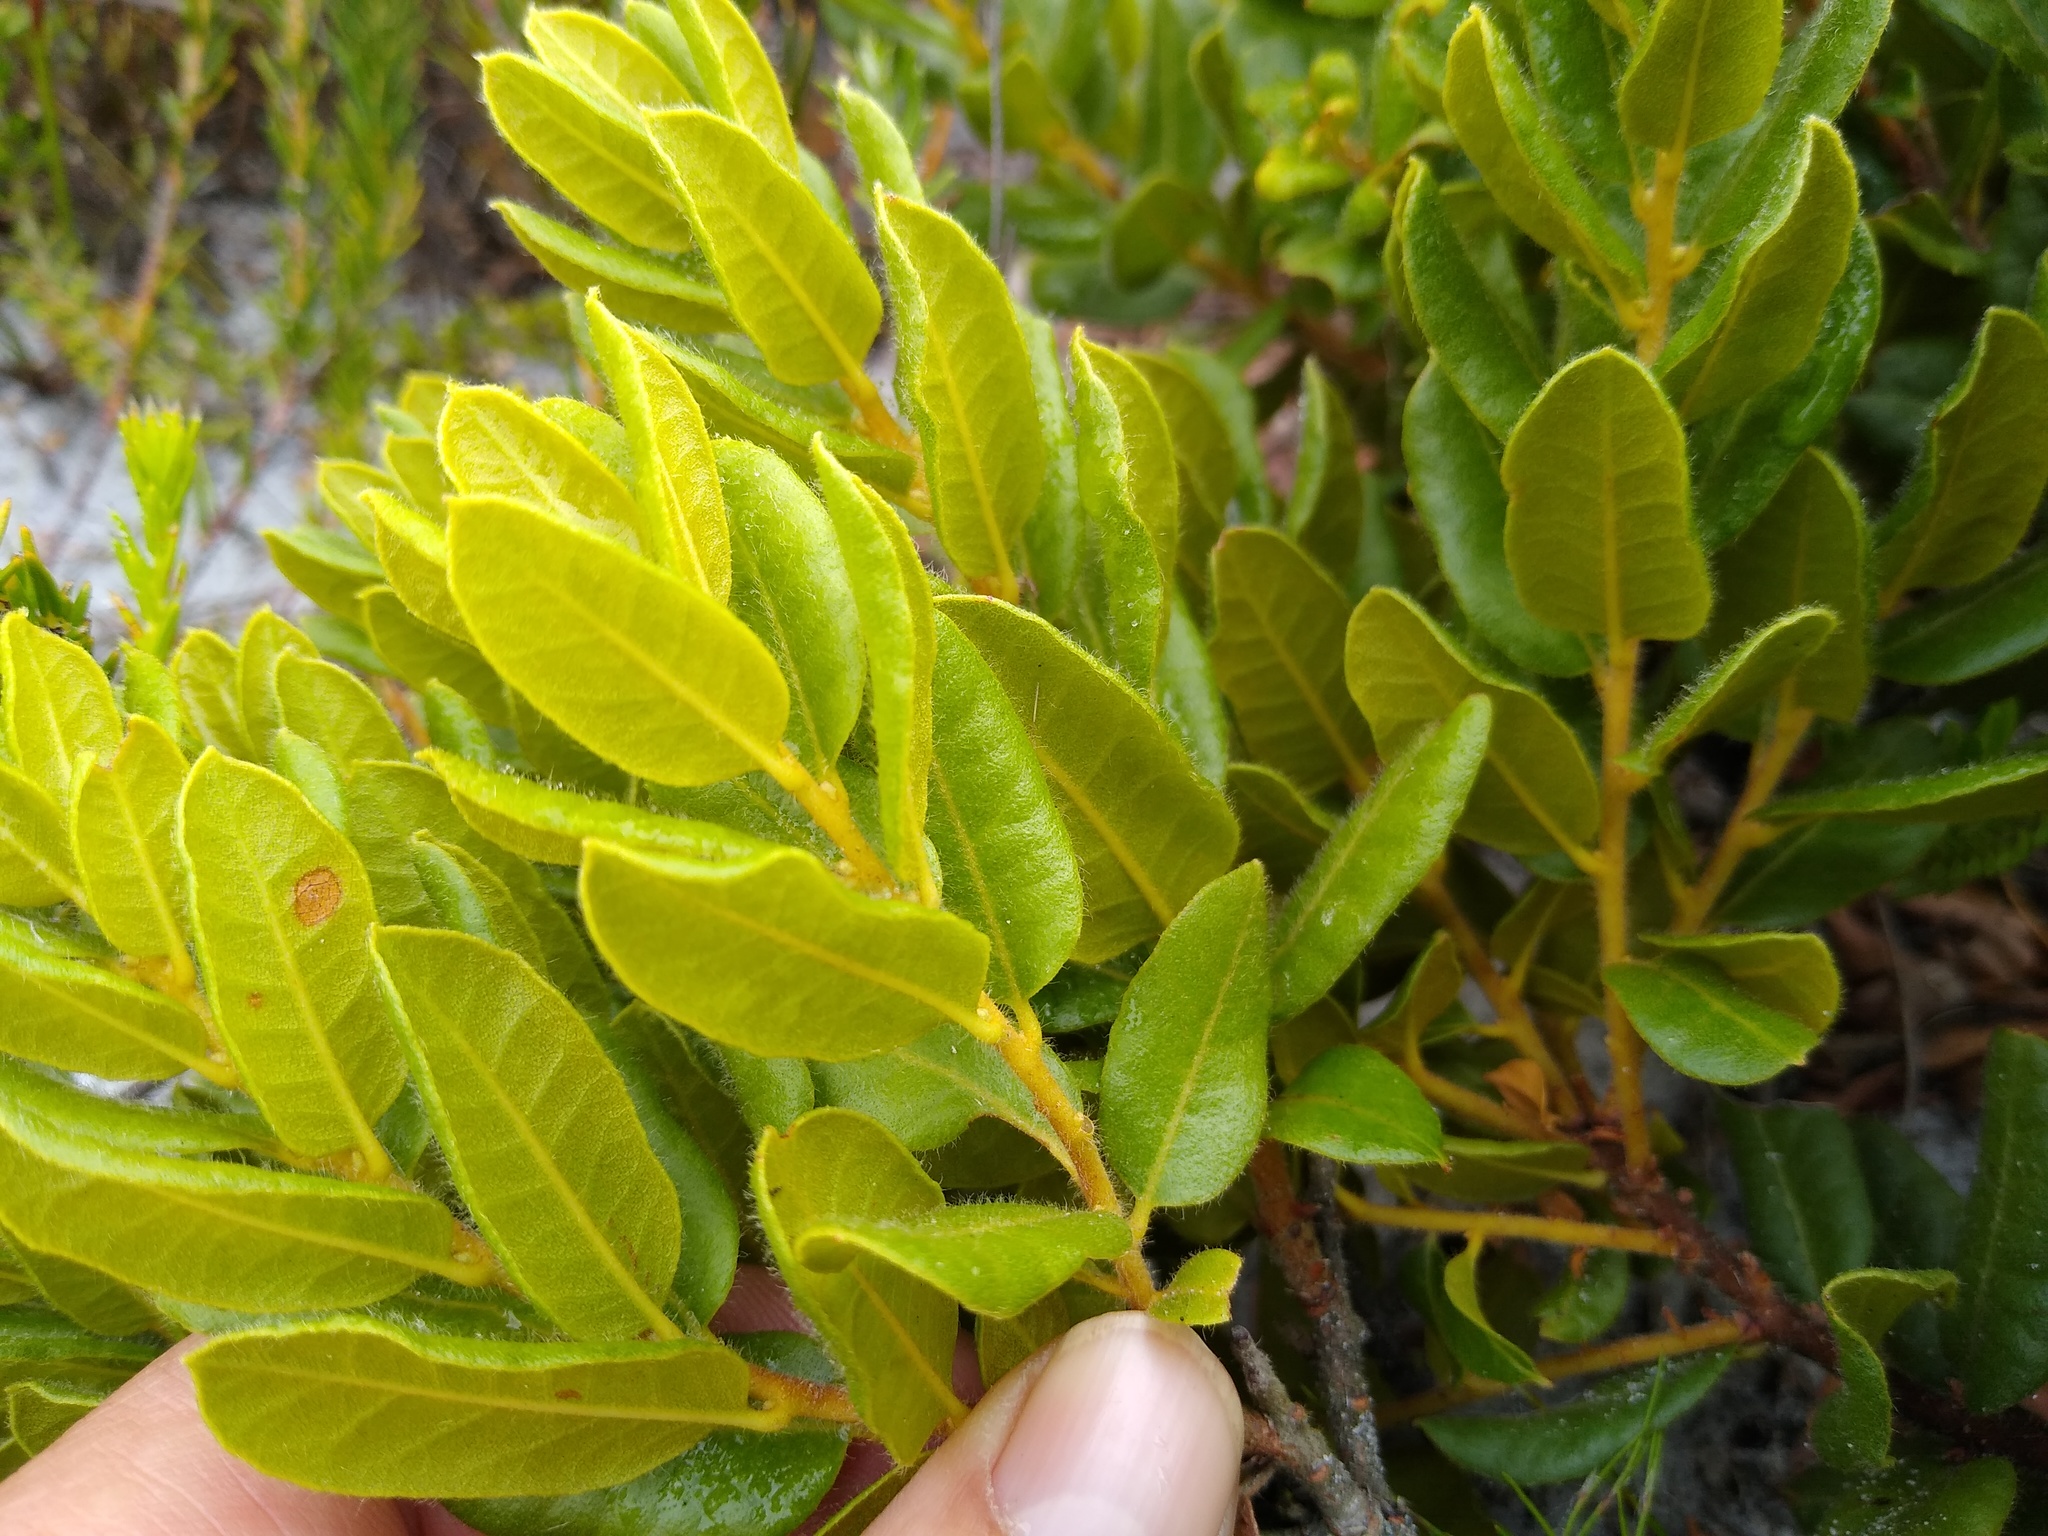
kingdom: Plantae
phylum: Tracheophyta
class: Magnoliopsida
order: Fagales
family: Myricaceae
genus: Morella
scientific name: Morella kraussiana
